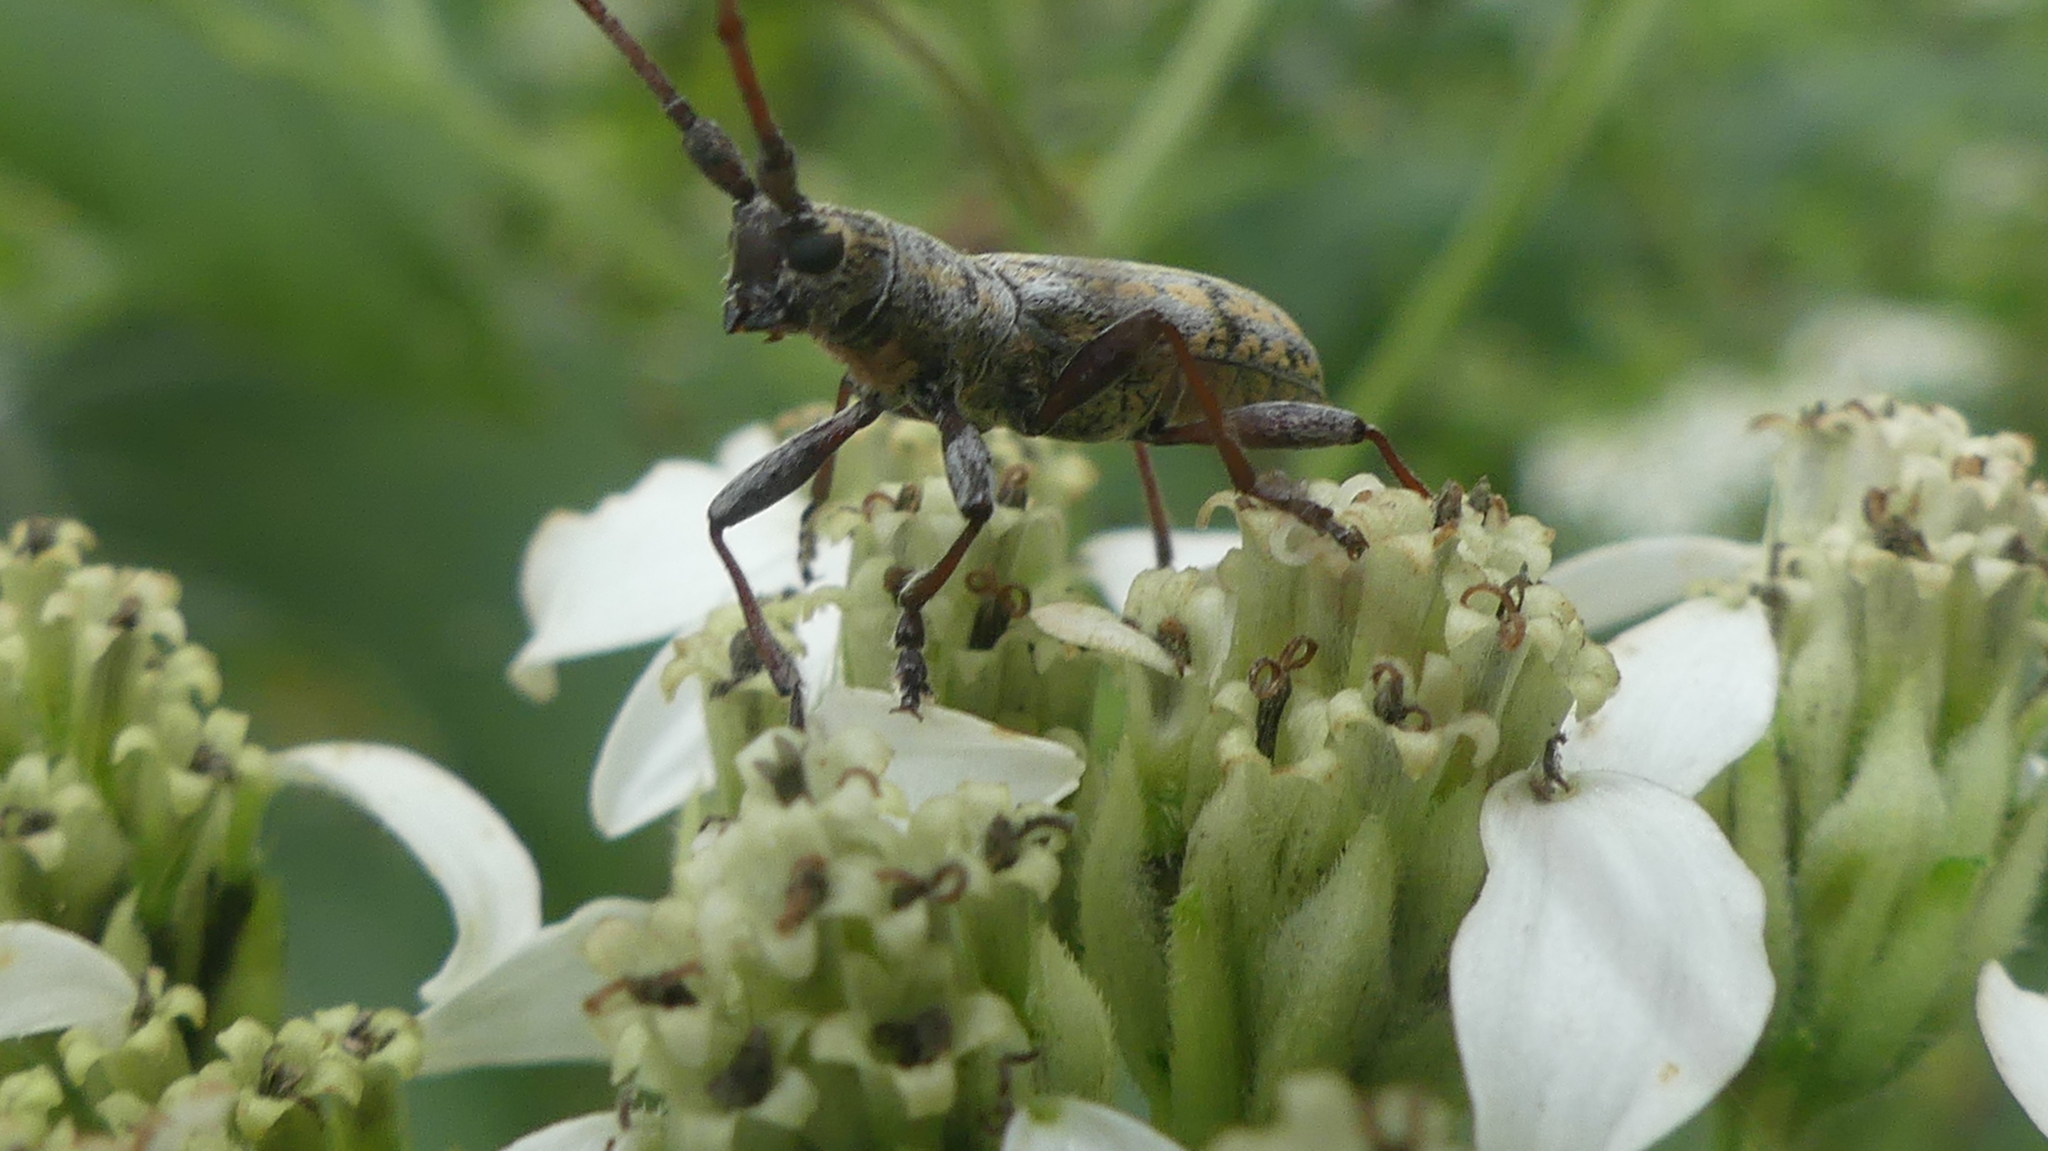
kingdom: Animalia
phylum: Arthropoda
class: Insecta
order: Coleoptera
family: Cerambycidae
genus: Dorcaschema
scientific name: Dorcaschema alternatum
